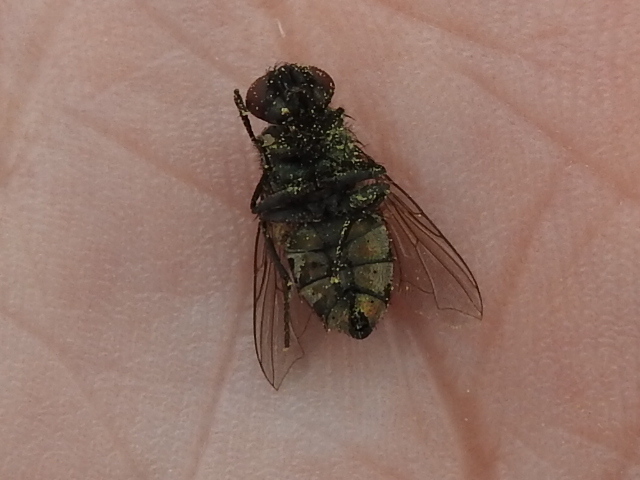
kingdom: Animalia
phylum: Arthropoda
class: Insecta
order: Diptera
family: Calliphoridae
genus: Lucilia
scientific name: Lucilia cuprina
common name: Sheep blow fly
